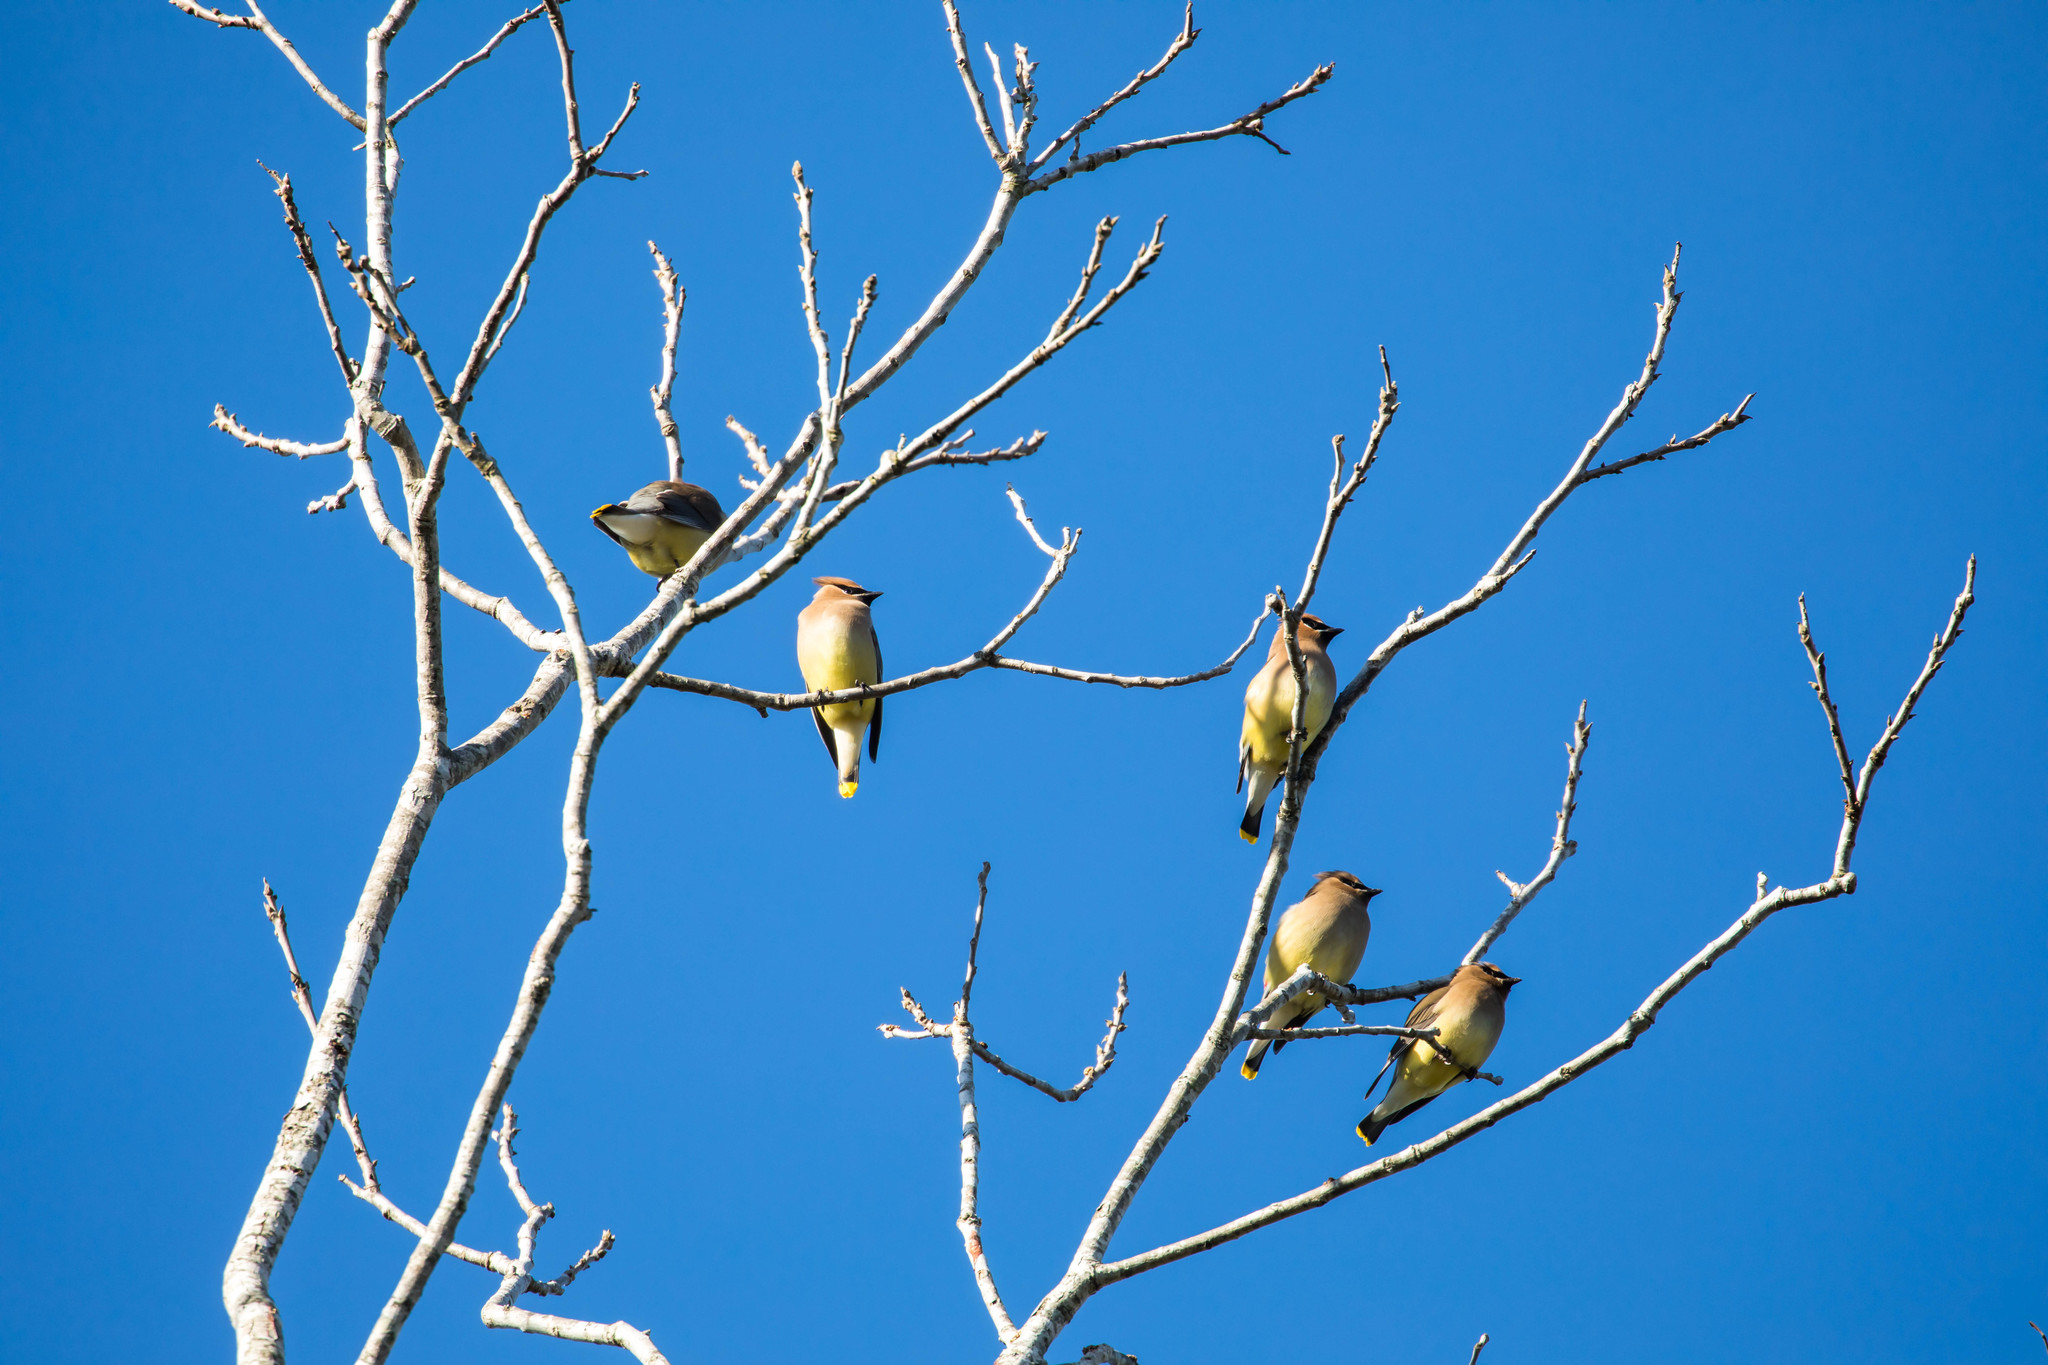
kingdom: Animalia
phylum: Chordata
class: Aves
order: Passeriformes
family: Bombycillidae
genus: Bombycilla
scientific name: Bombycilla cedrorum
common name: Cedar waxwing
